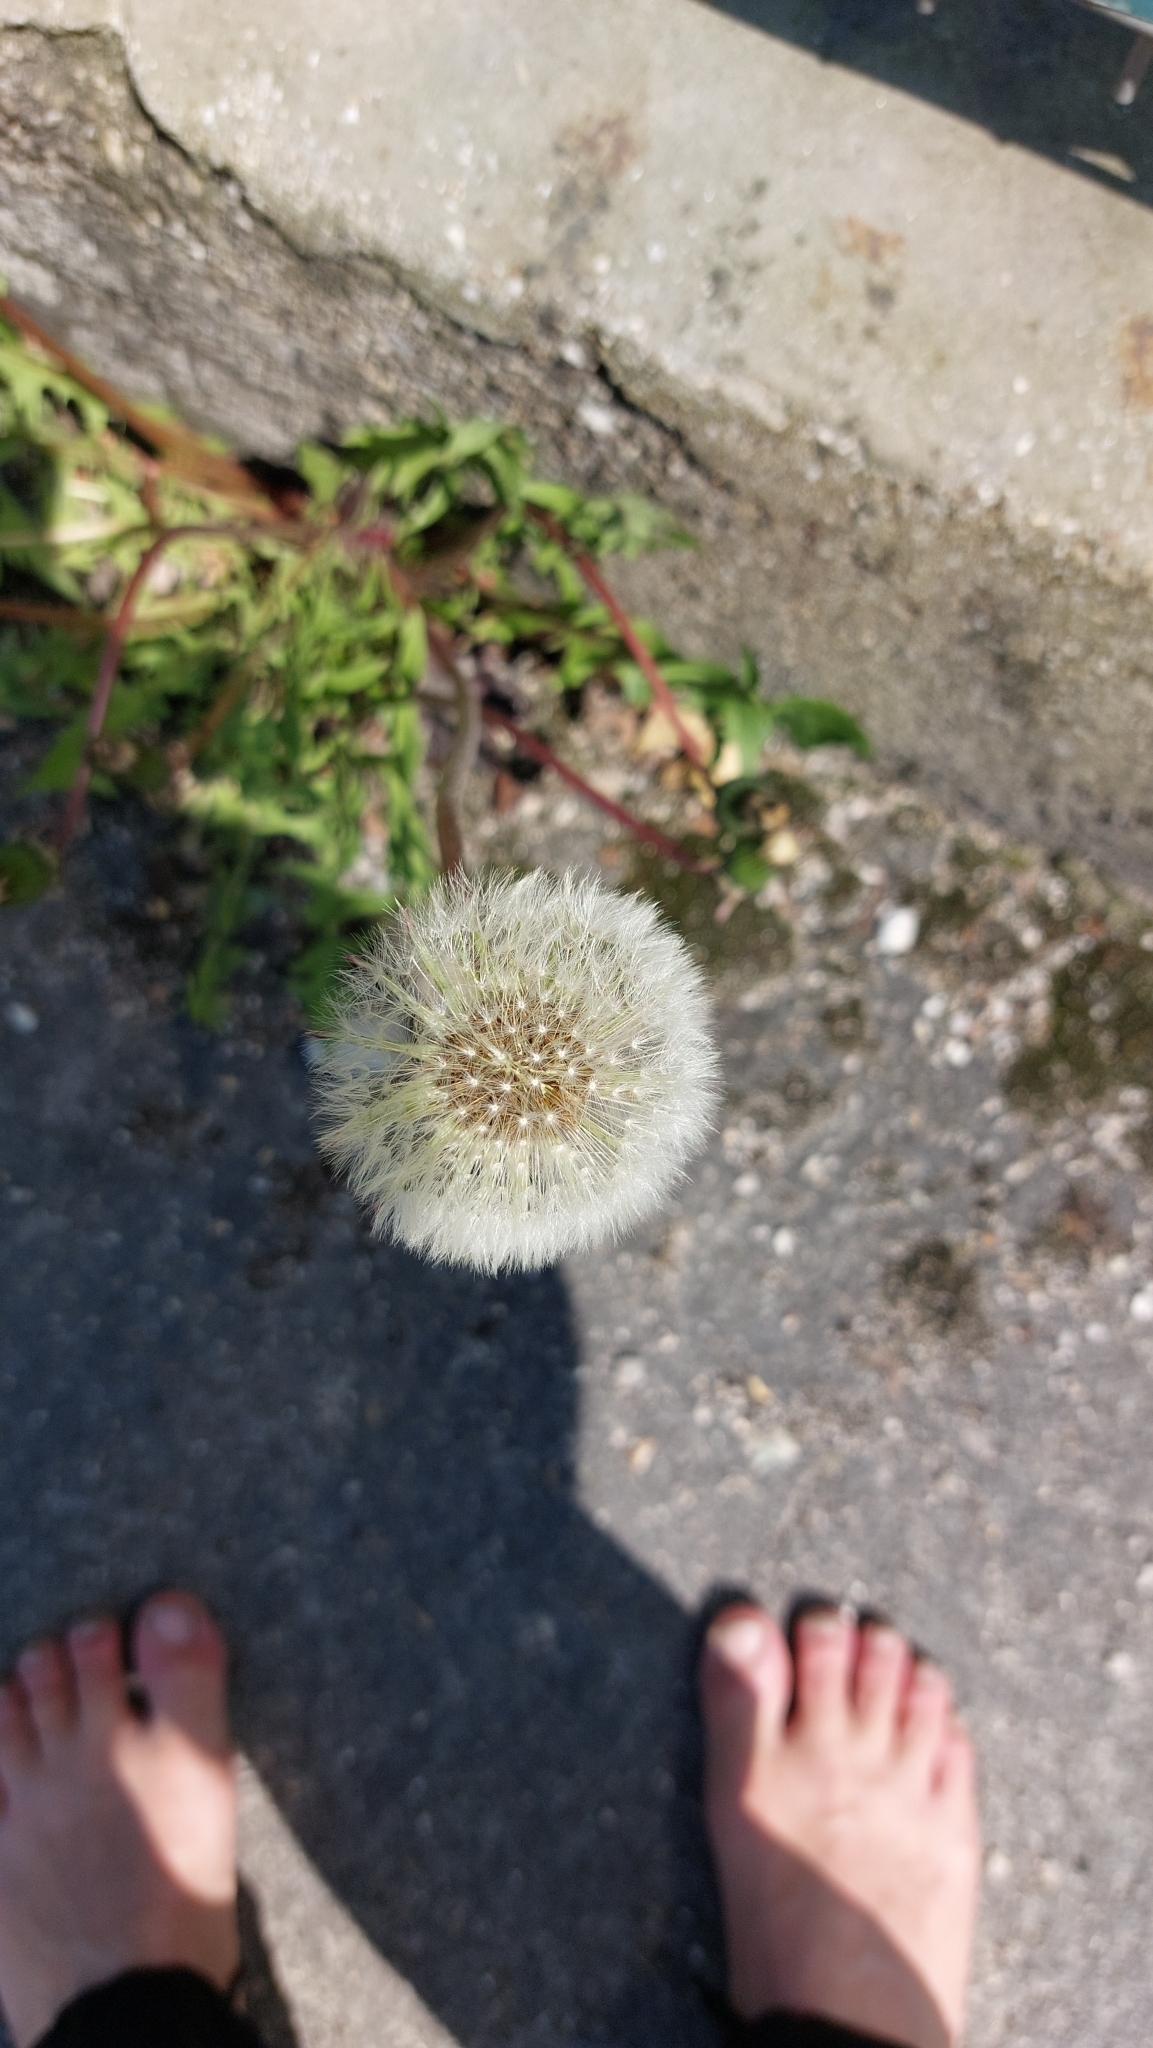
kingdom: Plantae
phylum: Tracheophyta
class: Magnoliopsida
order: Asterales
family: Asteraceae
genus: Taraxacum
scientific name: Taraxacum
